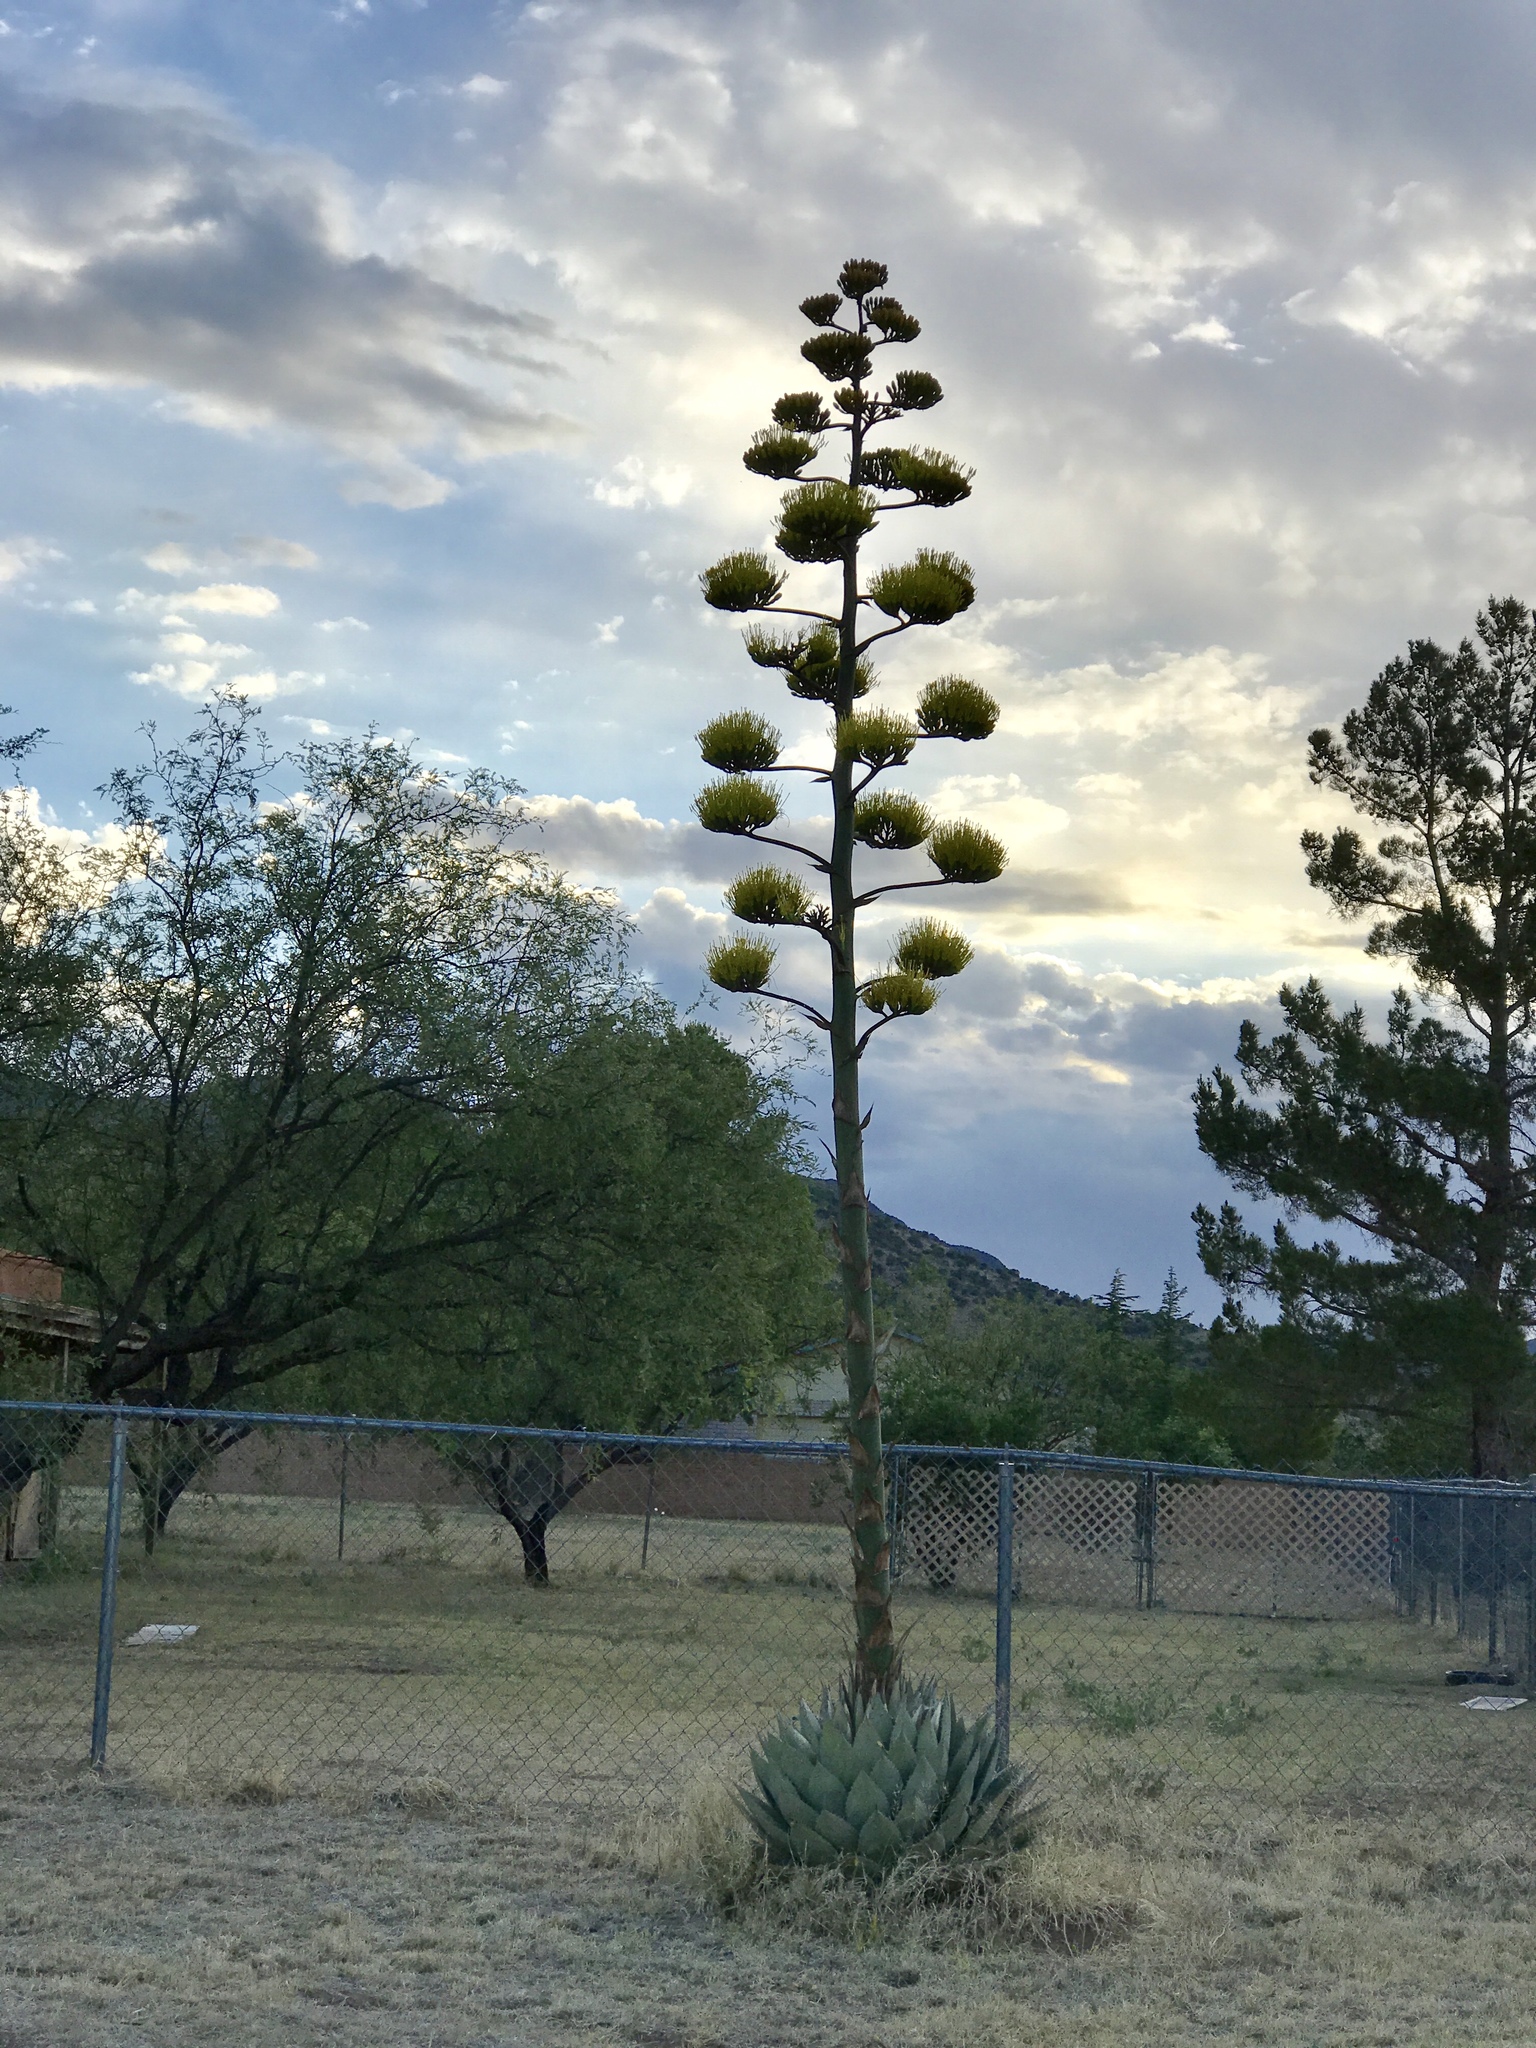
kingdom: Plantae
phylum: Tracheophyta
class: Liliopsida
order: Asparagales
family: Asparagaceae
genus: Agave
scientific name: Agave parryi
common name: Parry's agave
